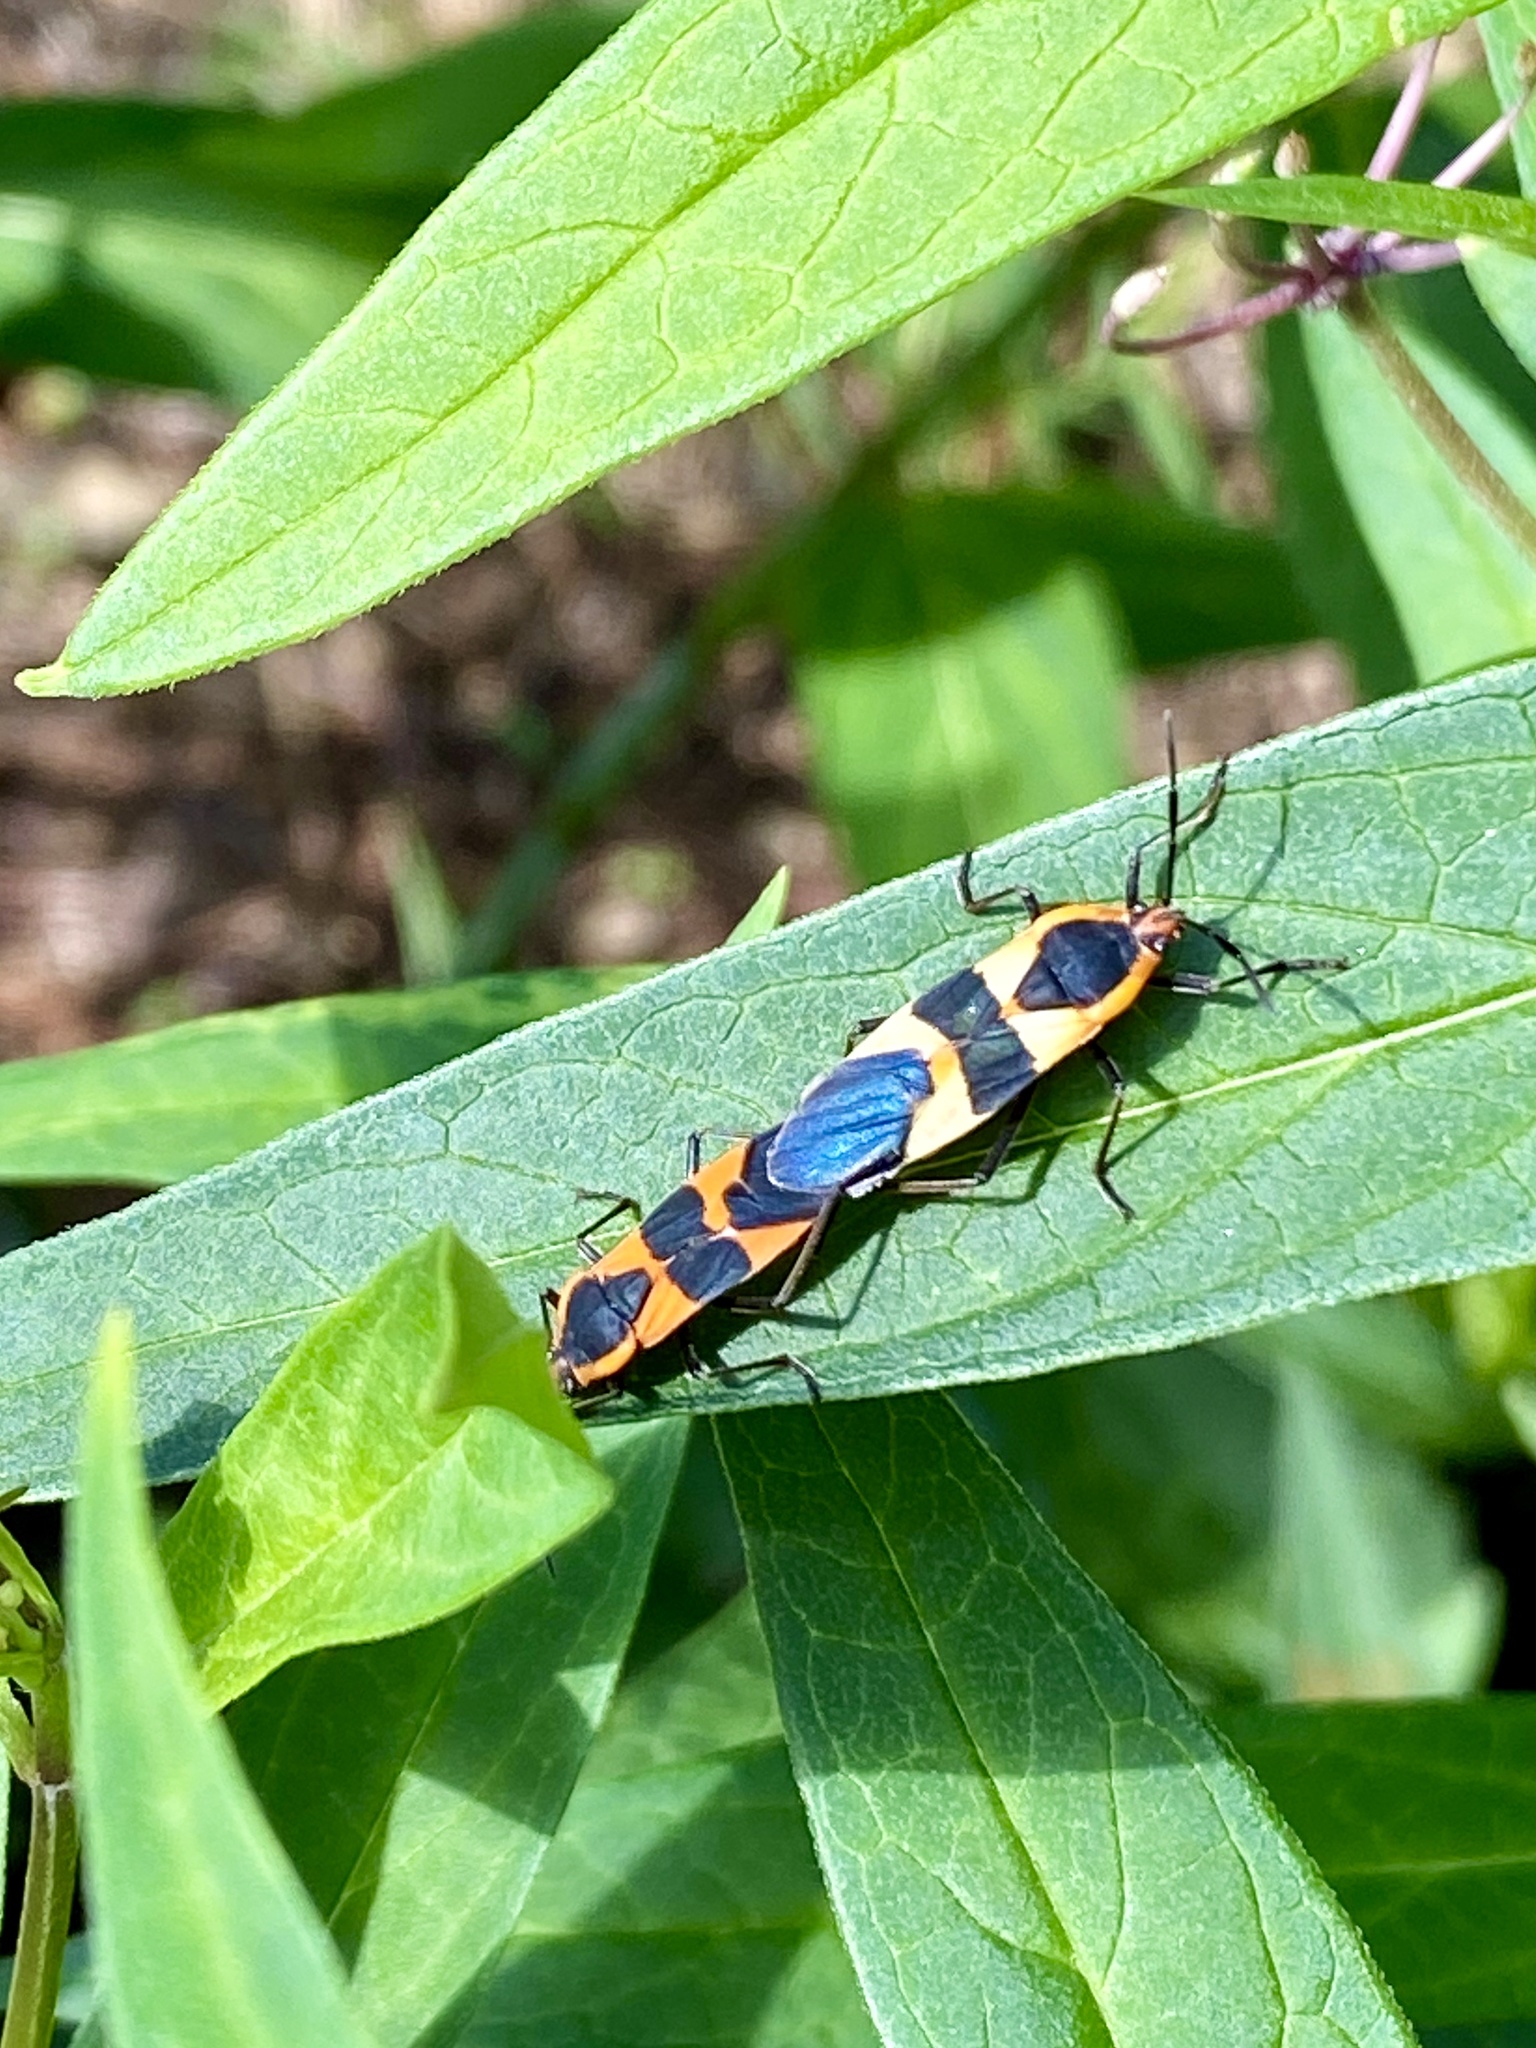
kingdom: Animalia
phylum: Arthropoda
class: Insecta
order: Hemiptera
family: Lygaeidae
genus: Oncopeltus
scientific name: Oncopeltus fasciatus
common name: Large milkweed bug
